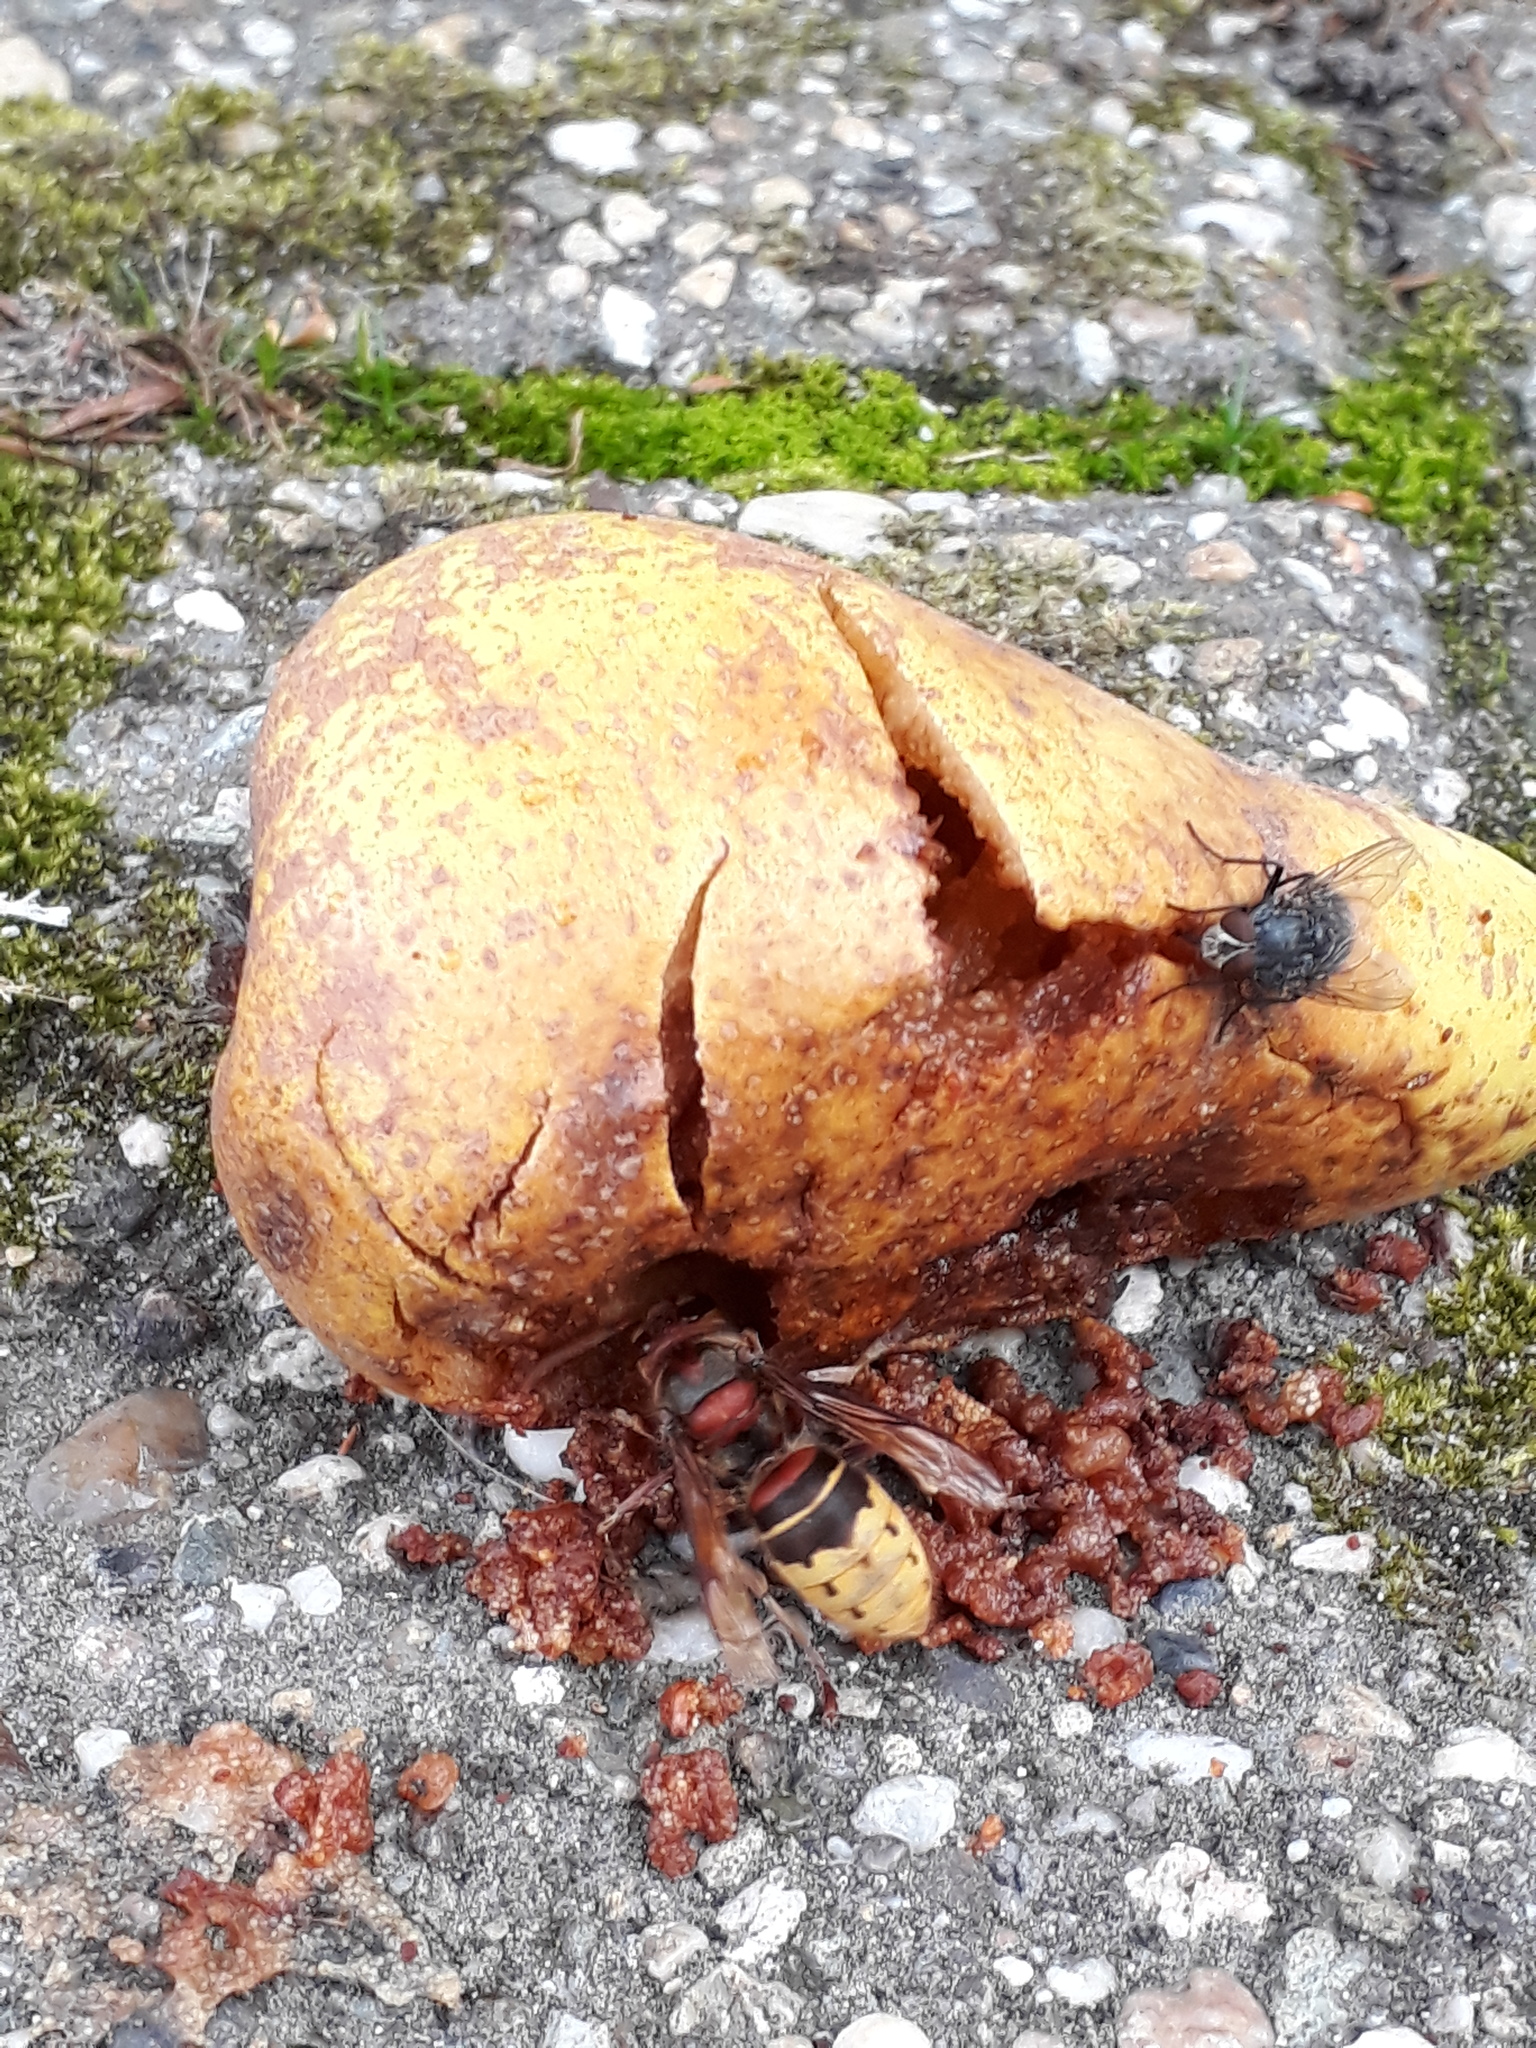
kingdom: Animalia
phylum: Arthropoda
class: Insecta
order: Hymenoptera
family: Vespidae
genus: Vespa
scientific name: Vespa crabro
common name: Hornet
